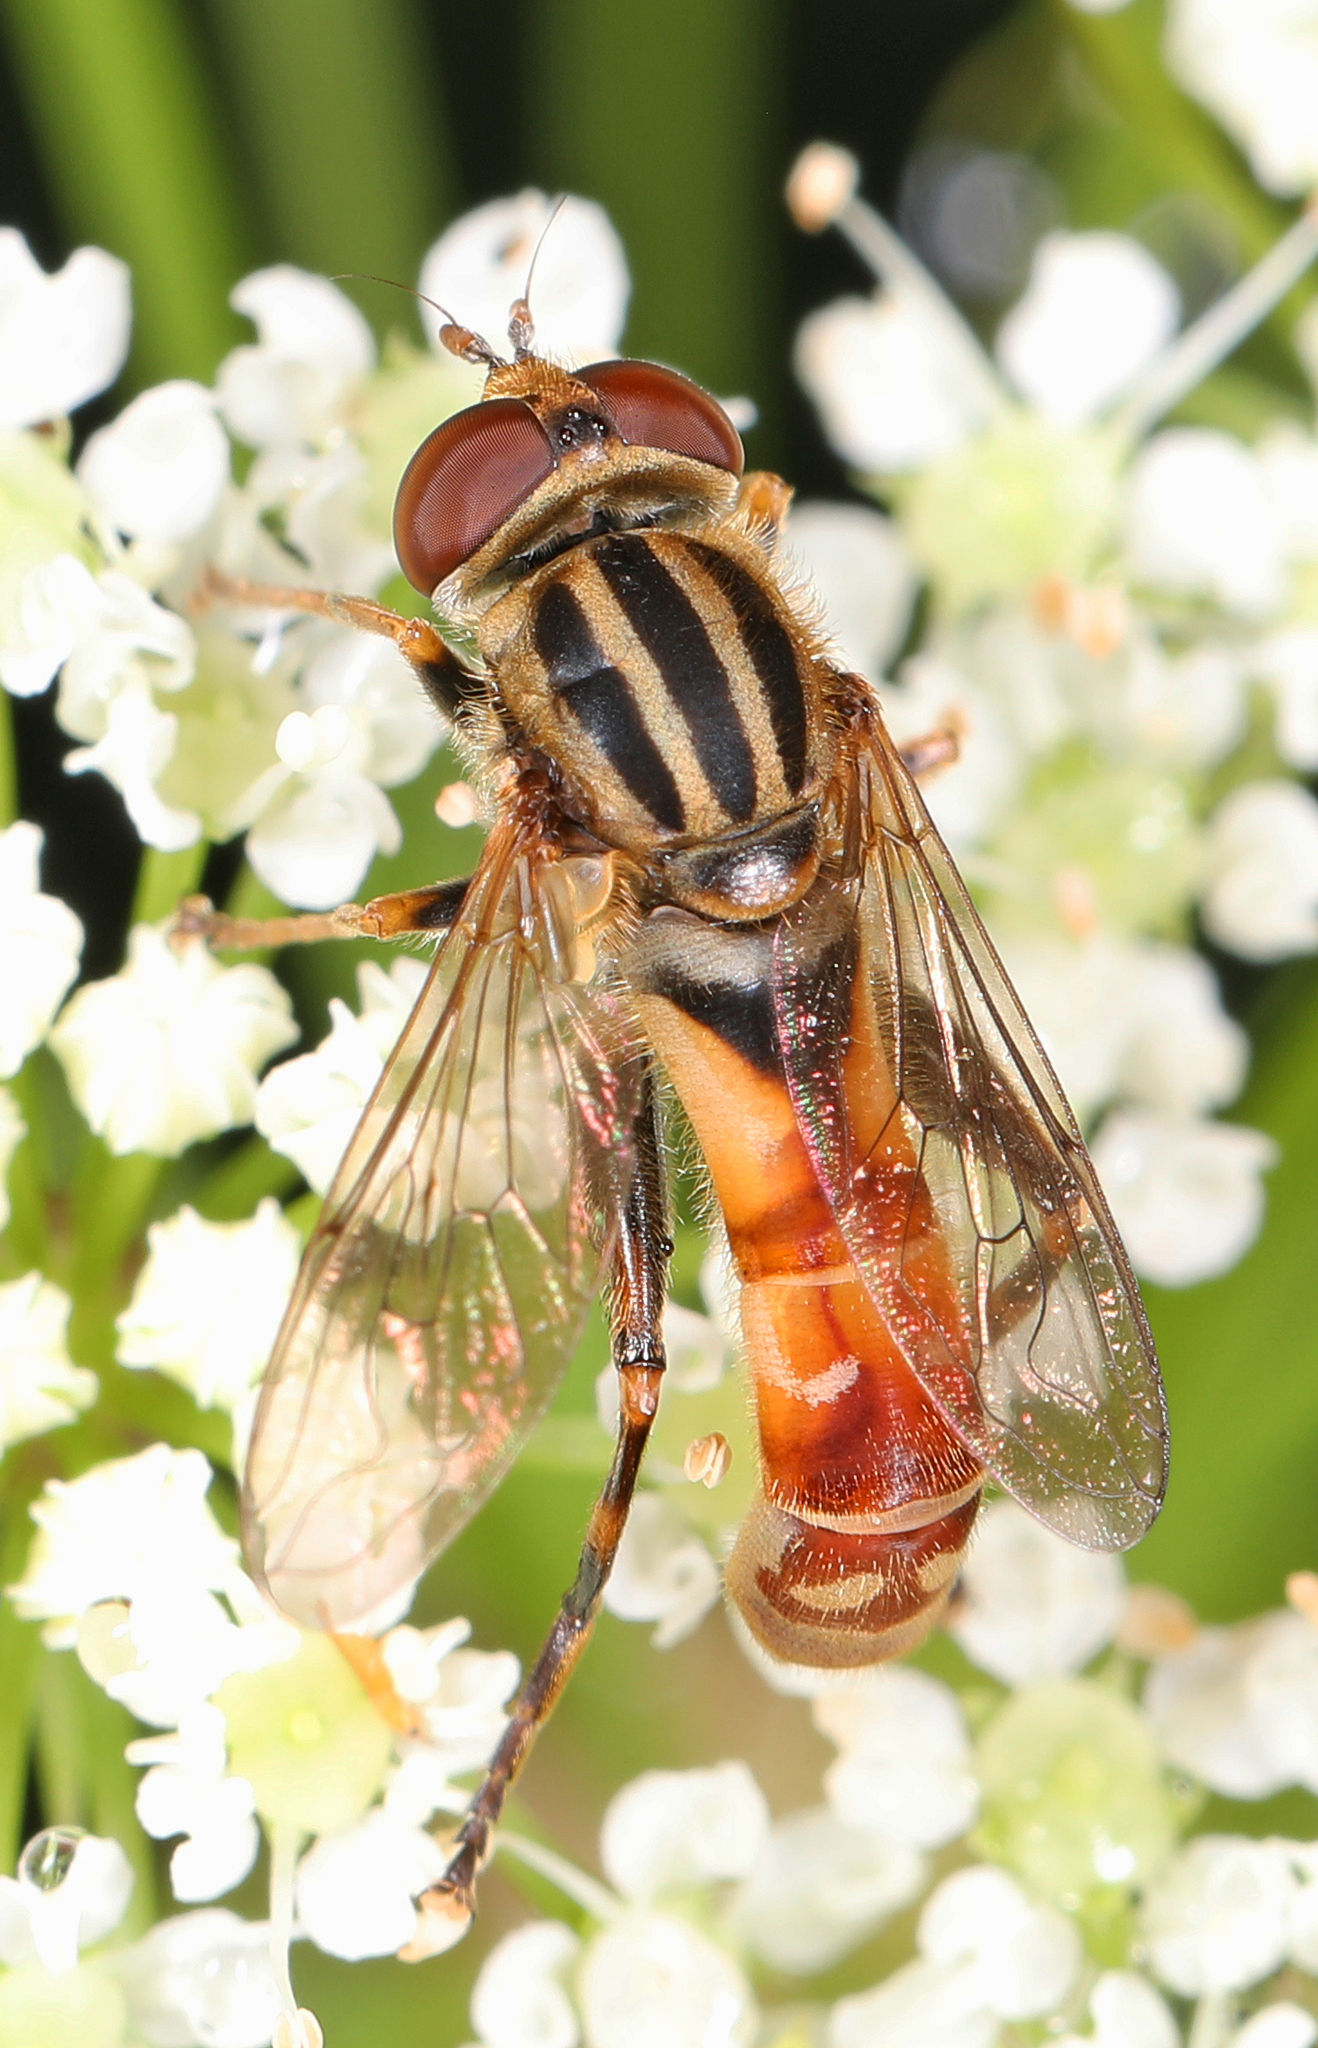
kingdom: Animalia
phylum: Arthropoda
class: Insecta
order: Diptera
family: Syrphidae
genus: Anasimyia
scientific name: Anasimyia distinctus
